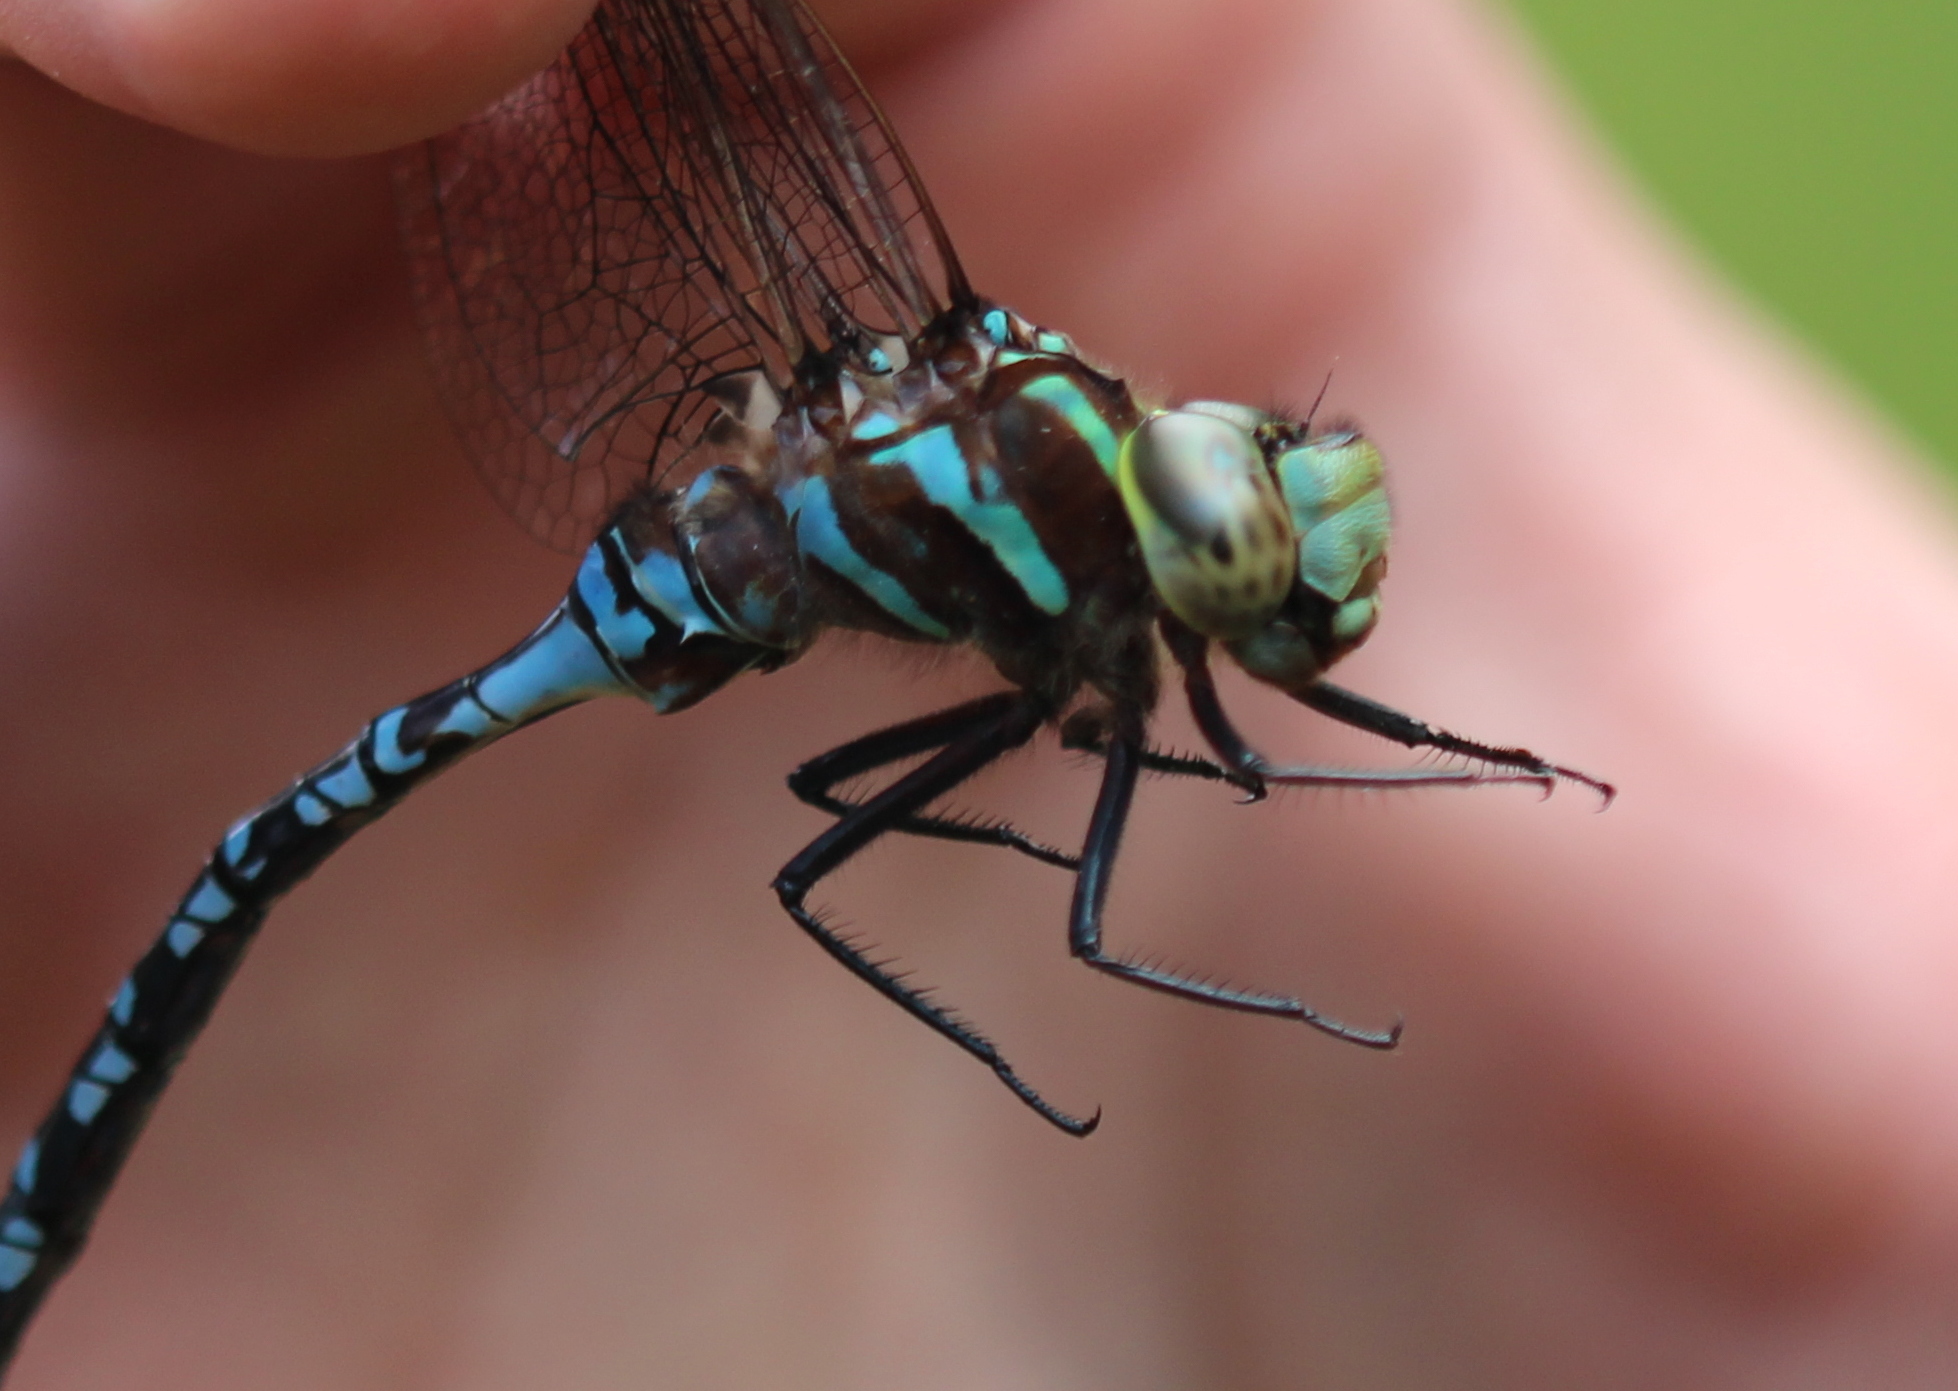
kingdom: Animalia
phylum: Arthropoda
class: Insecta
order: Odonata
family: Aeshnidae
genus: Aeshna
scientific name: Aeshna constricta
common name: Lance-tipped darner
